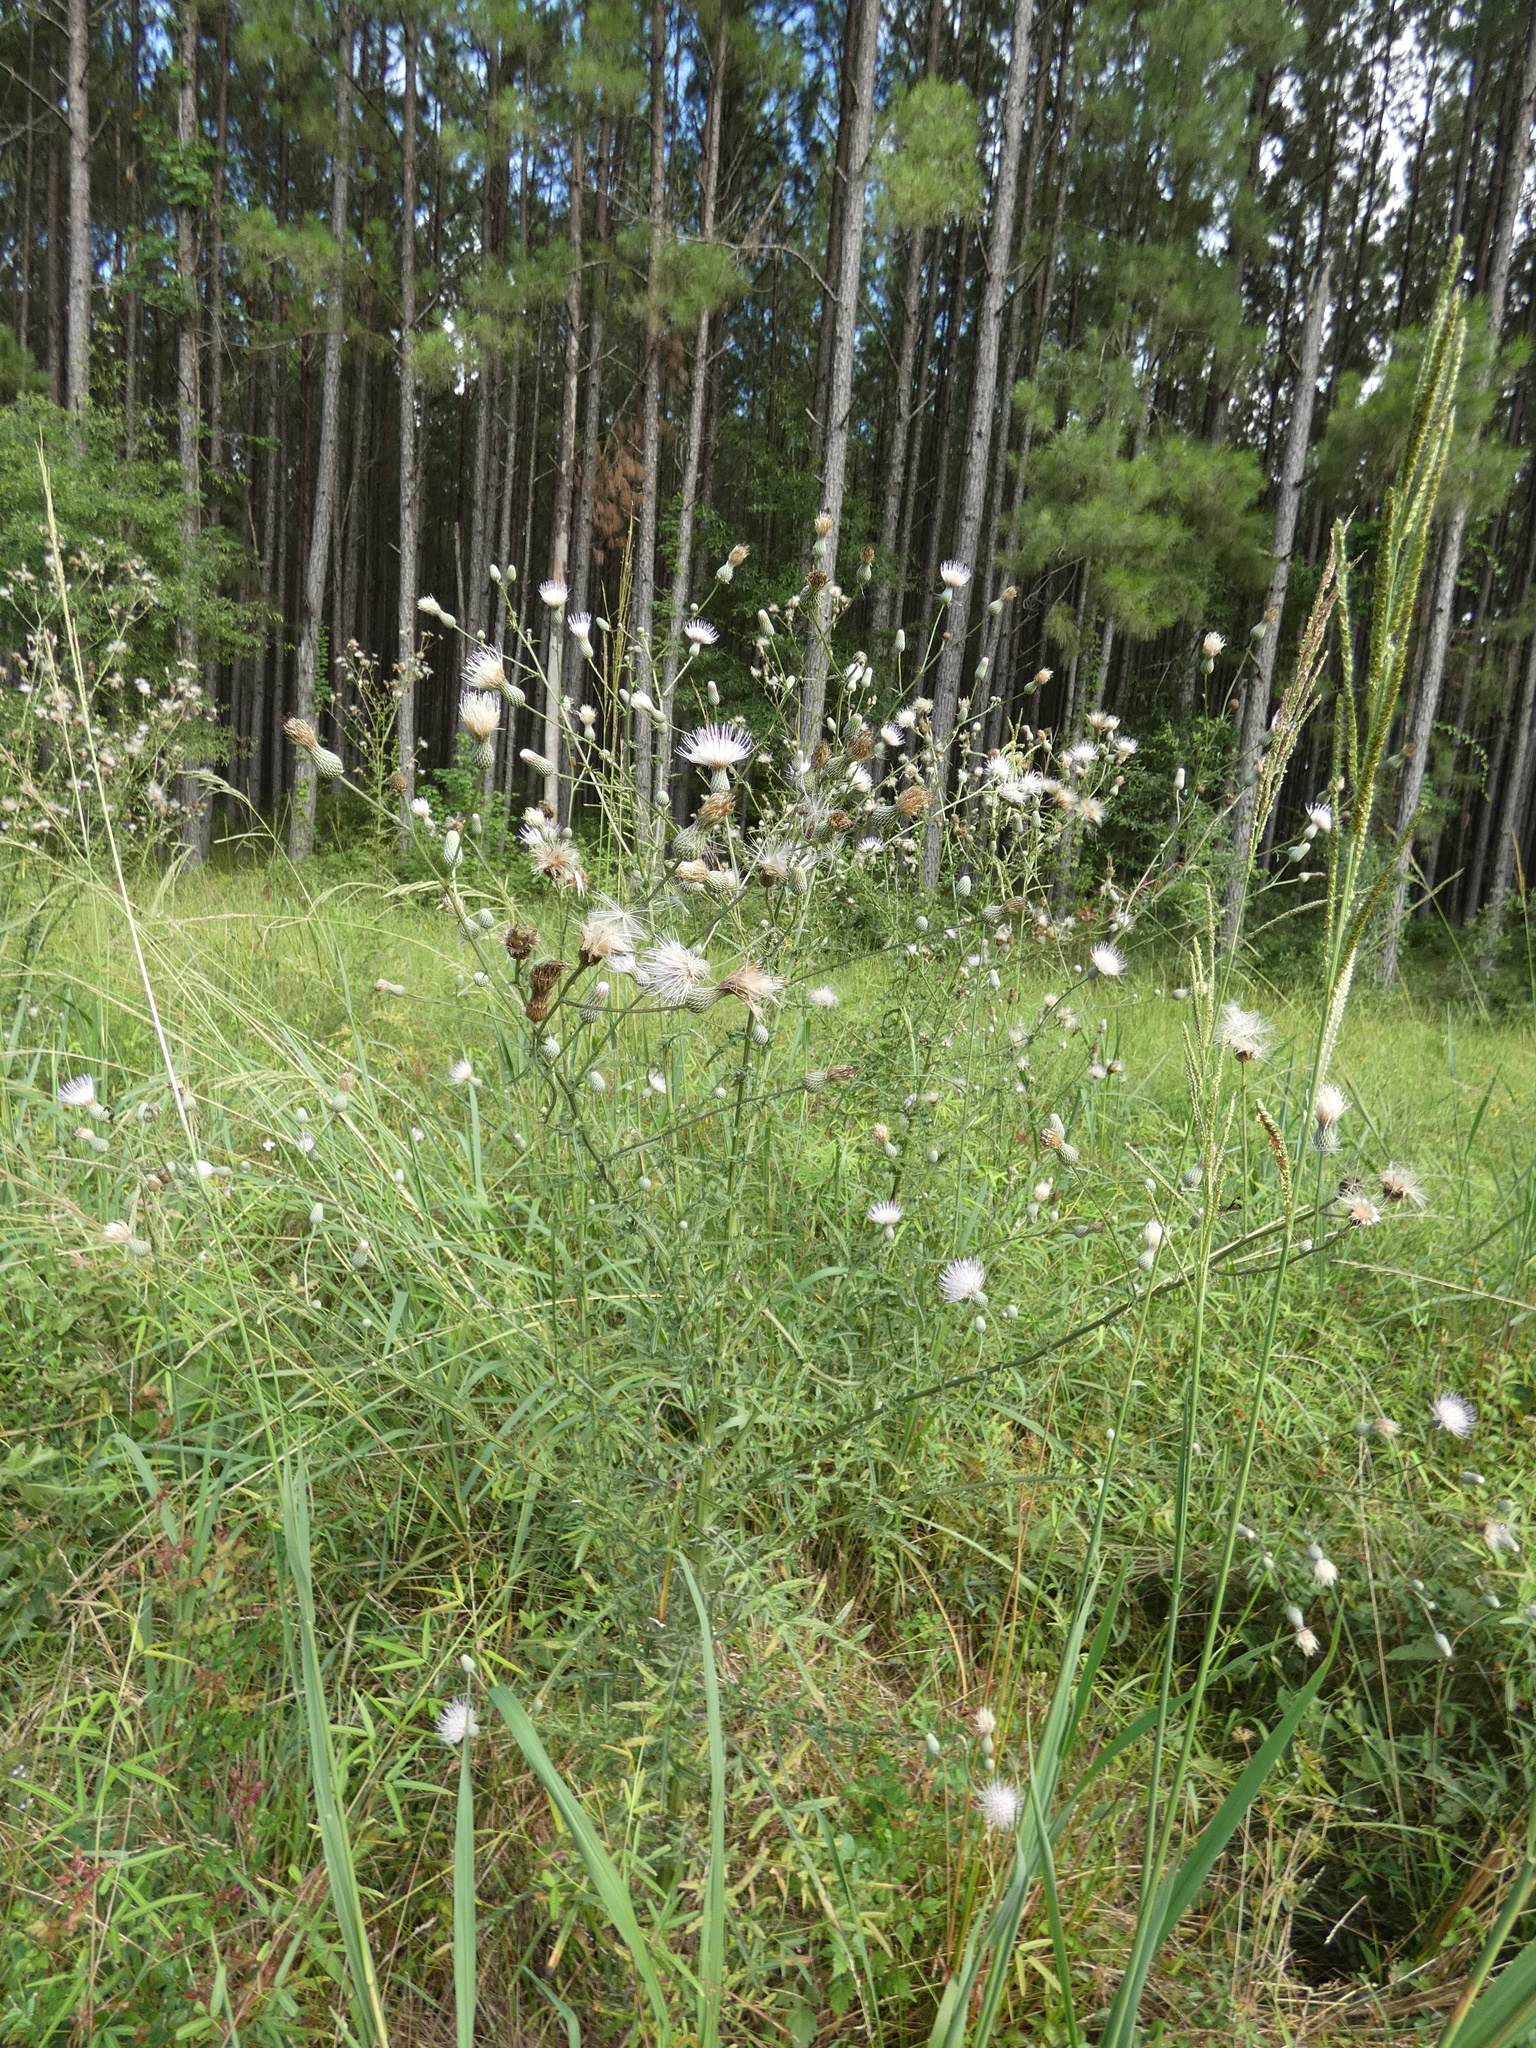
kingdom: Plantae
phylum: Tracheophyta
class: Magnoliopsida
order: Asterales
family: Asteraceae
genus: Cirsium
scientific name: Cirsium nuttalii
